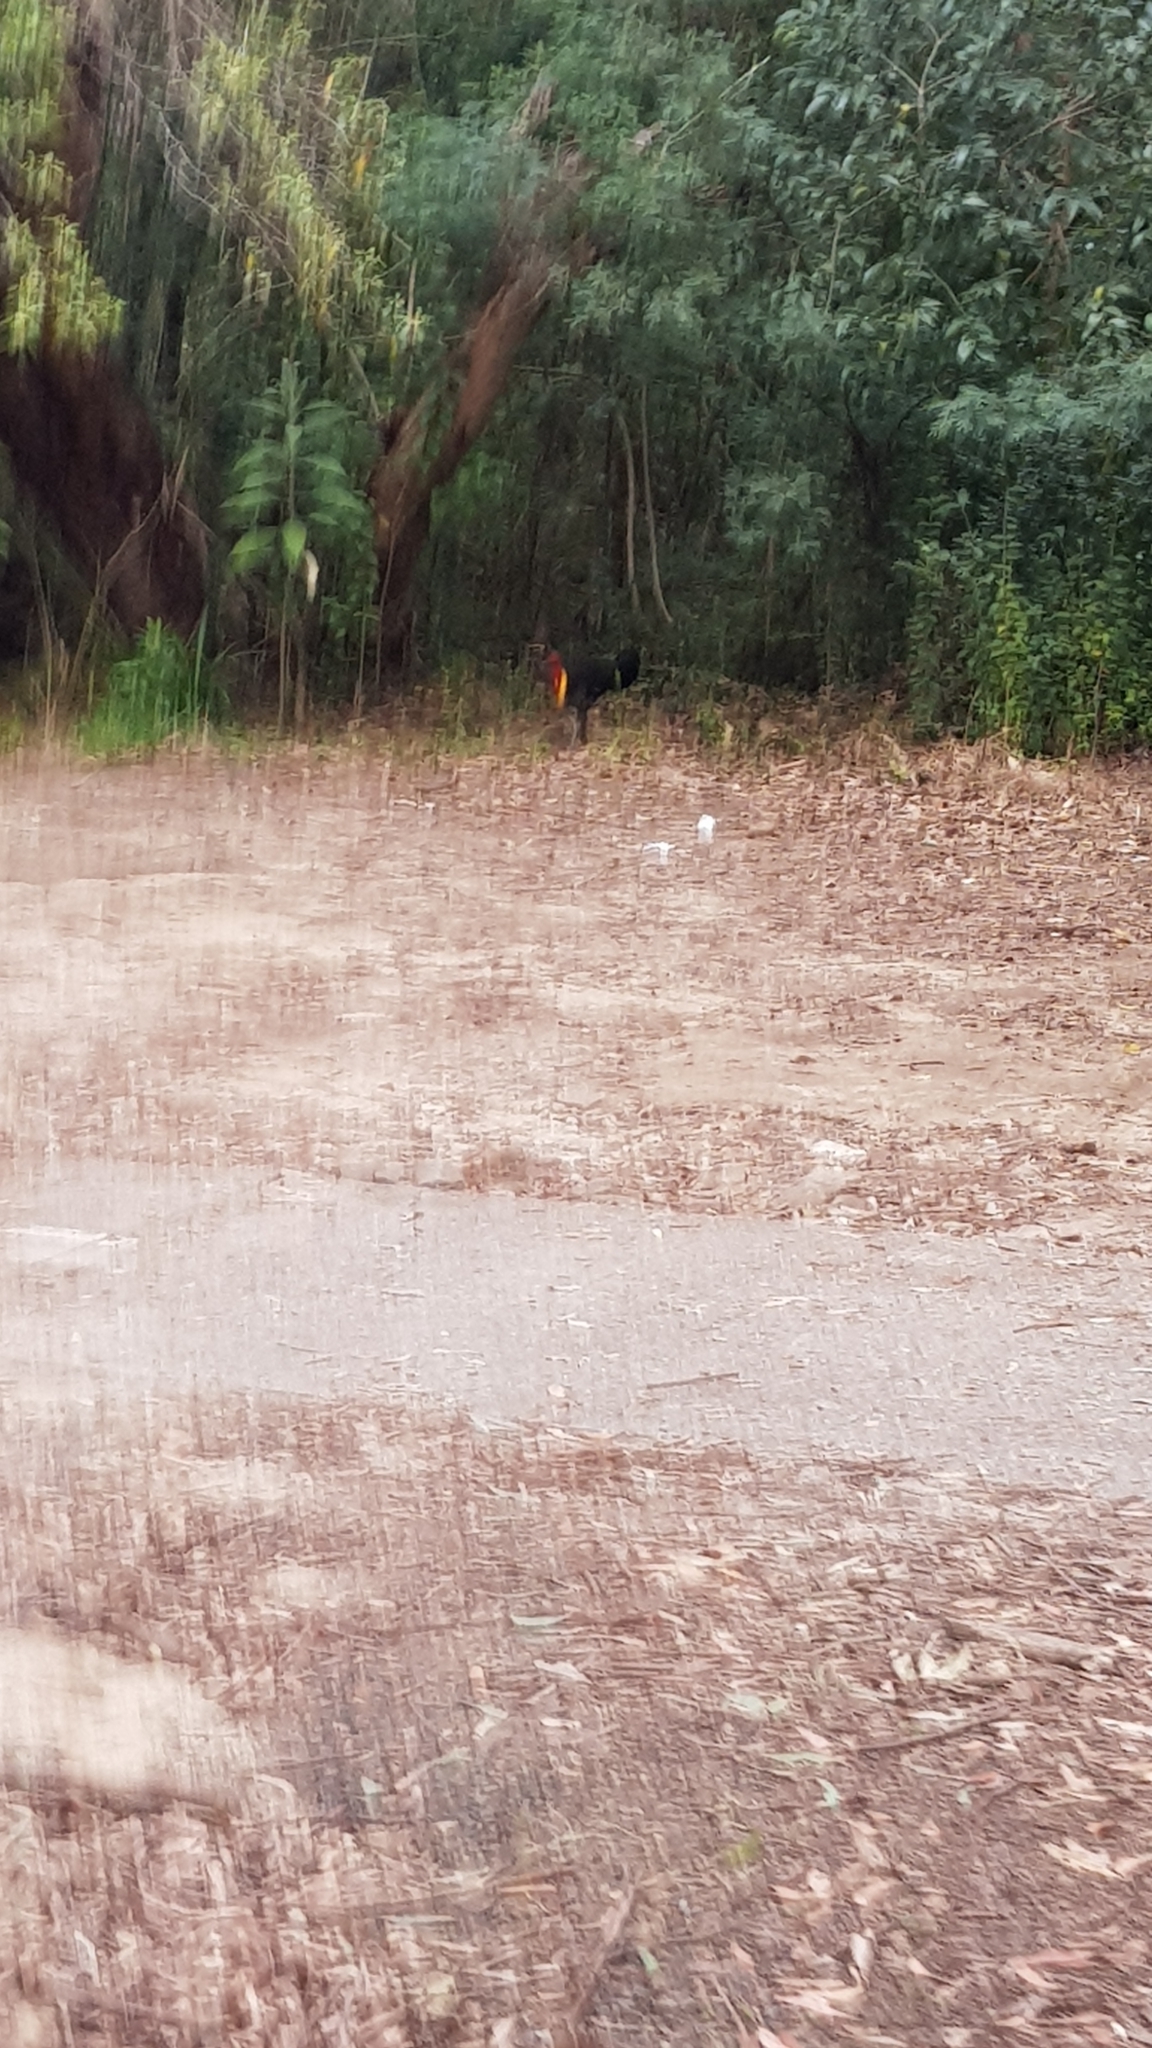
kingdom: Animalia
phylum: Chordata
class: Aves
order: Galliformes
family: Megapodiidae
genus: Alectura
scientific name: Alectura lathami
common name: Australian brushturkey
